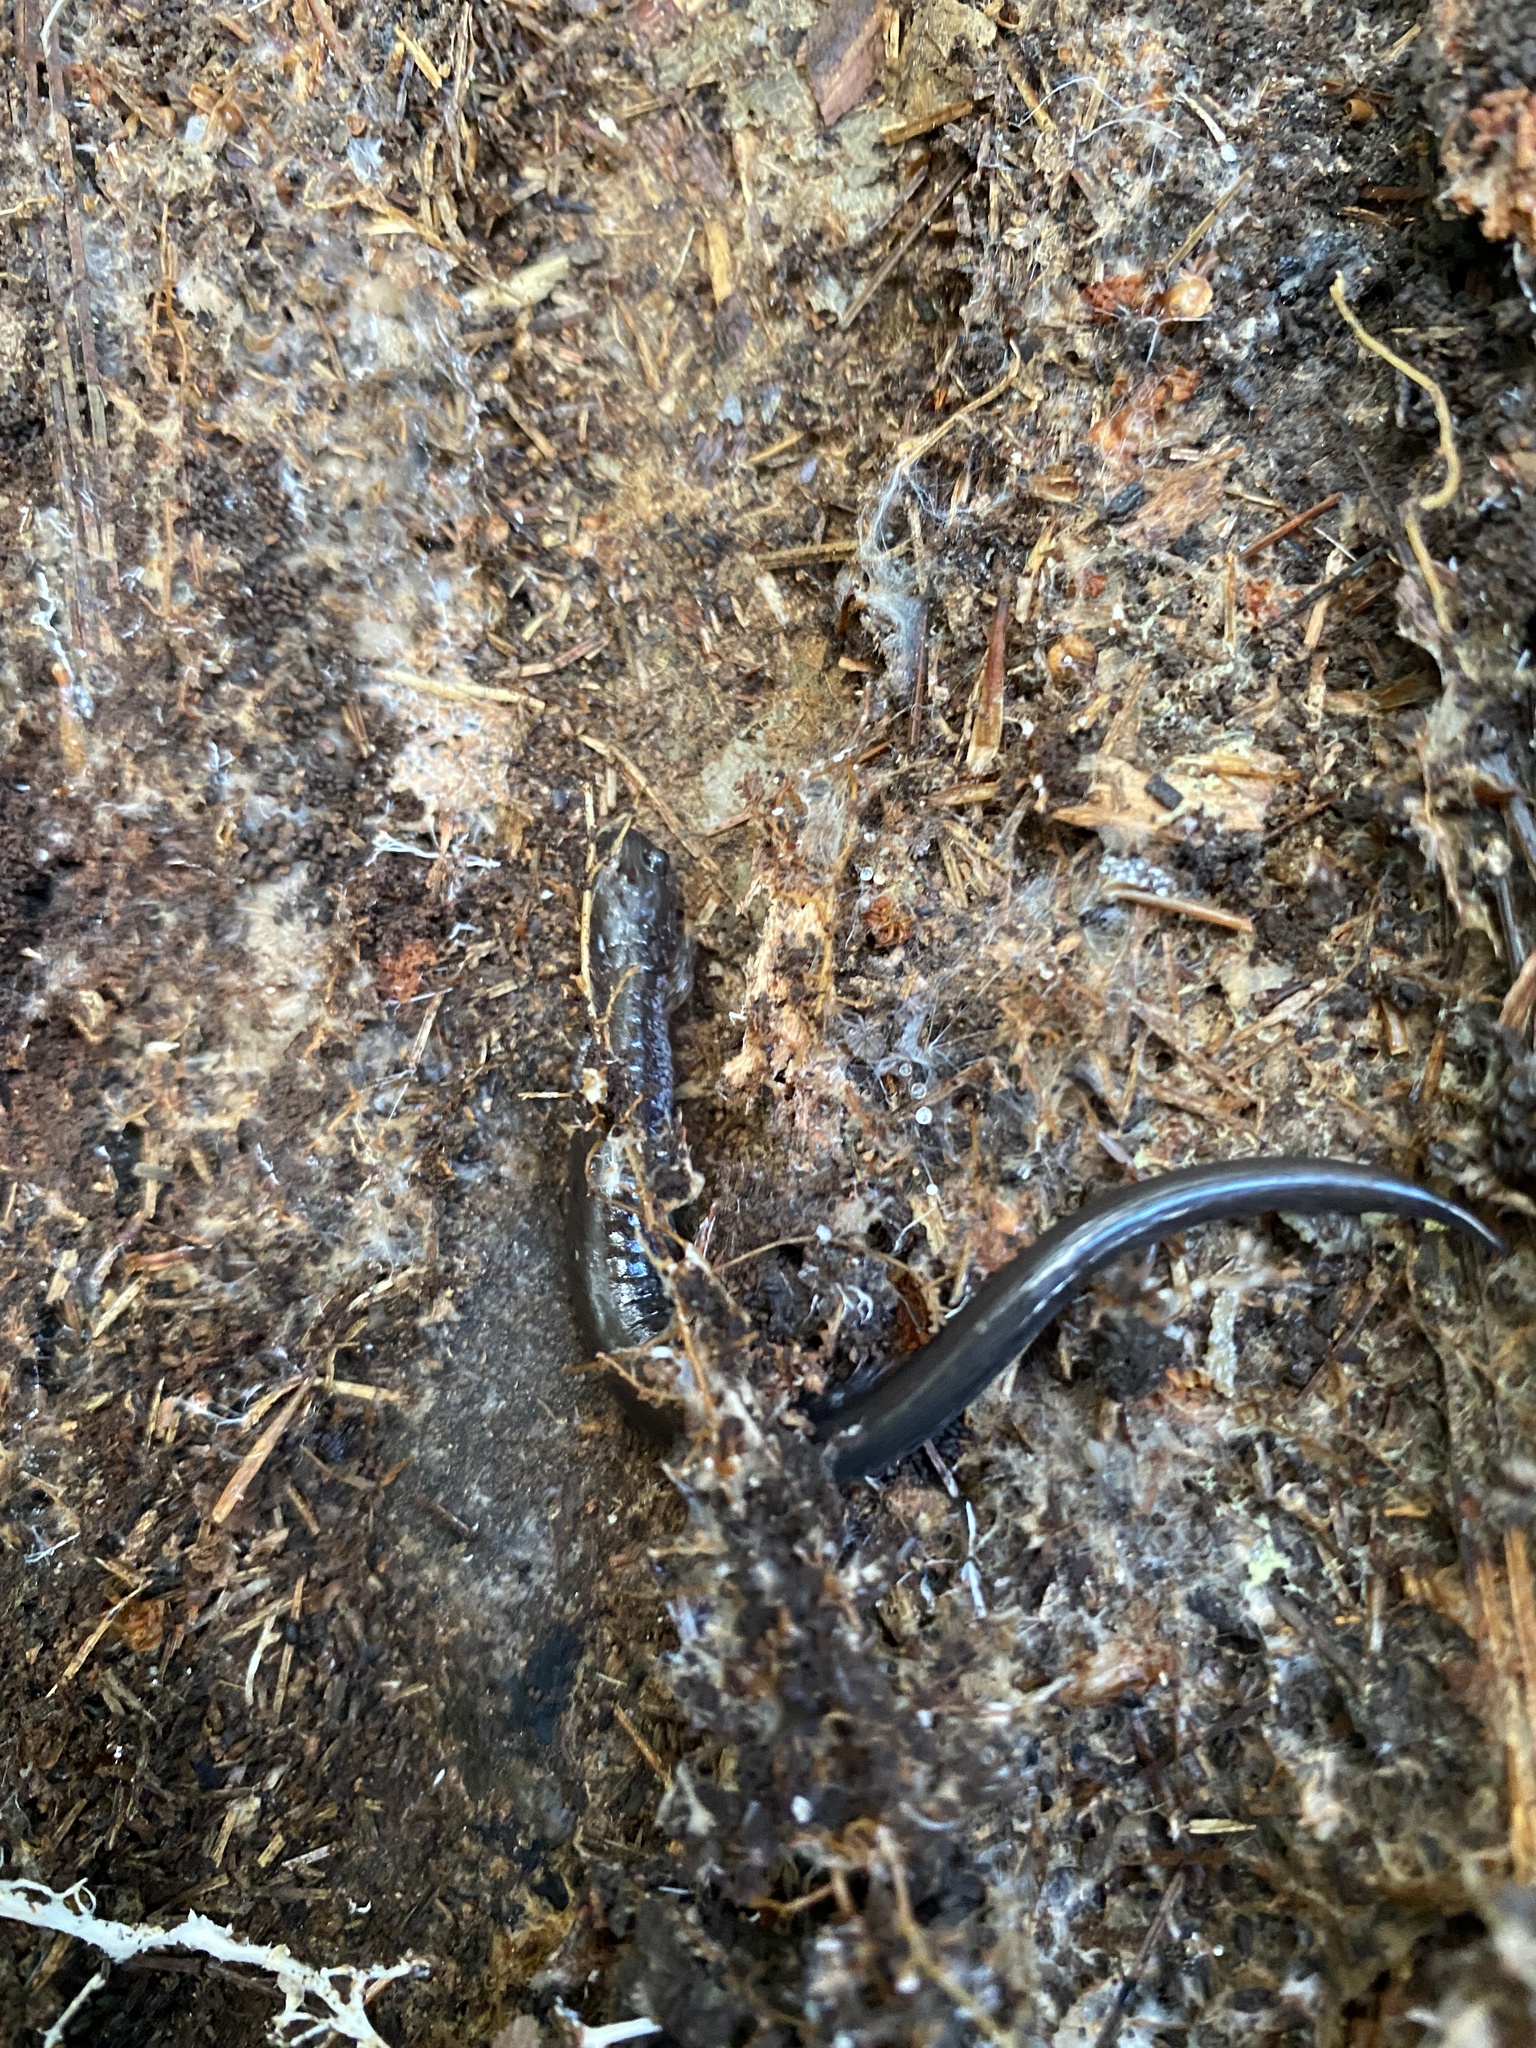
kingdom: Animalia
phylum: Chordata
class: Amphibia
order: Caudata
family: Plethodontidae
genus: Plethodon
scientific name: Plethodon cinereus
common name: Redback salamander
